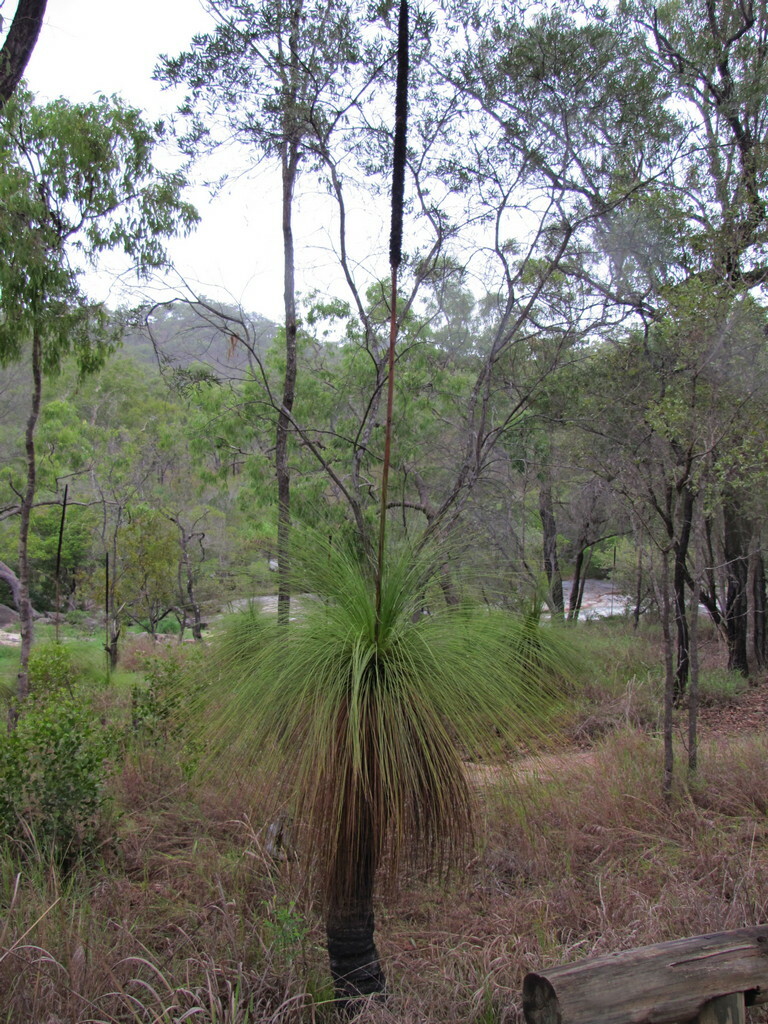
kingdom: Plantae
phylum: Tracheophyta
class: Liliopsida
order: Asparagales
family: Asphodelaceae
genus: Xanthorrhoea
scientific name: Xanthorrhoea johnsonii
